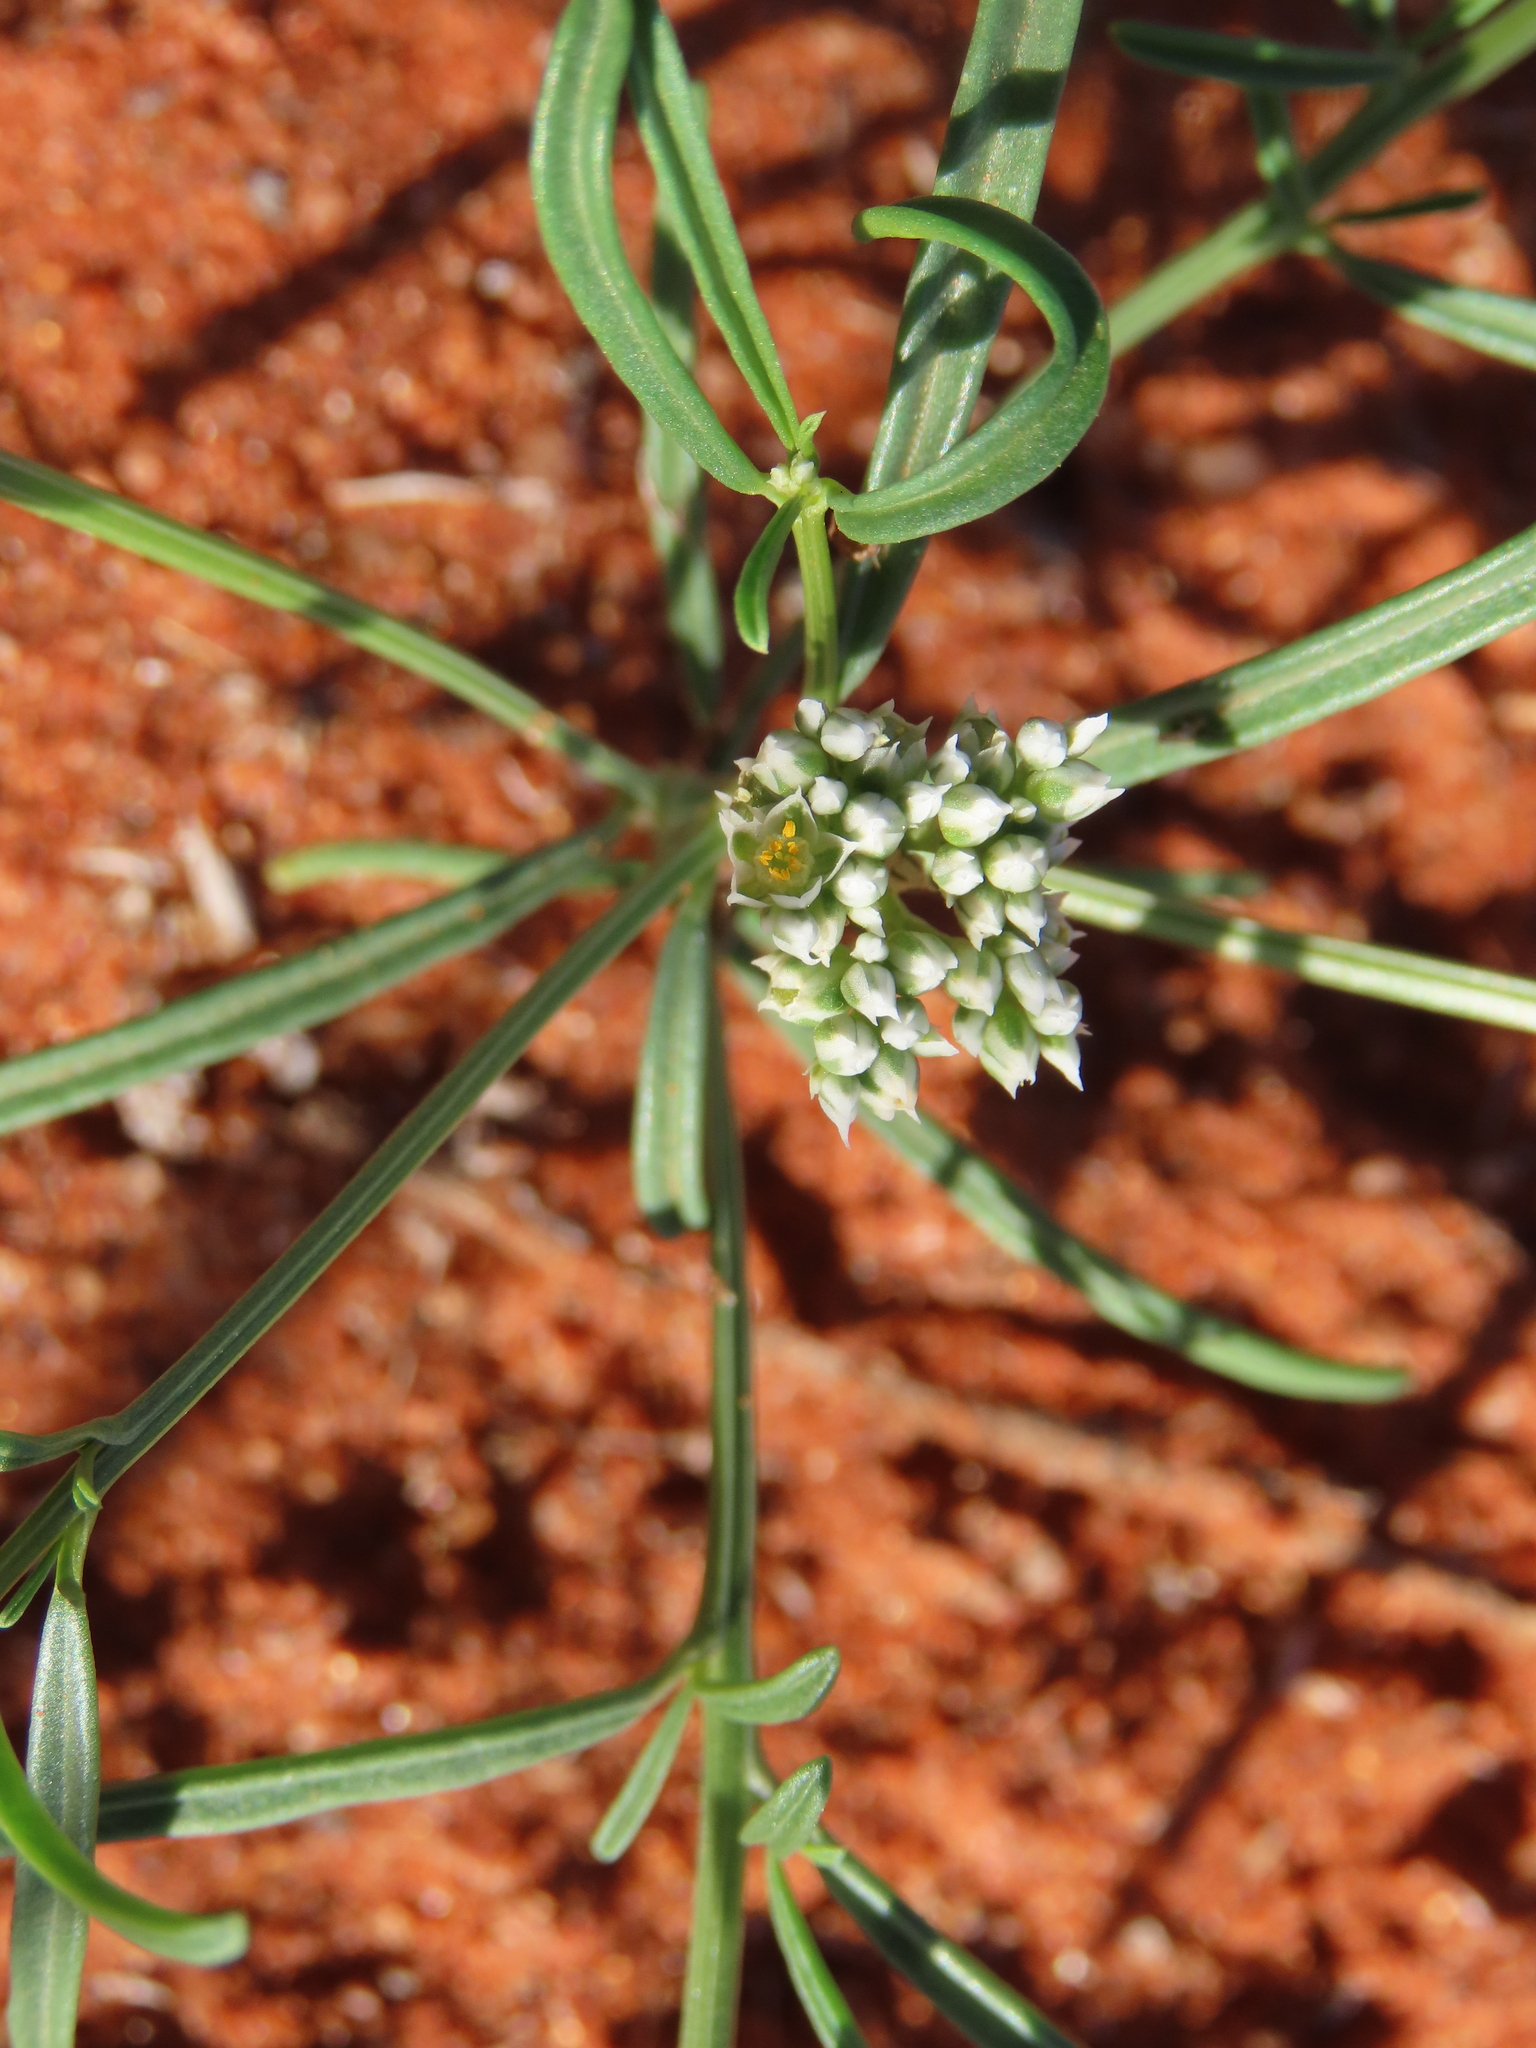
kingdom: Plantae
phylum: Tracheophyta
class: Magnoliopsida
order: Caryophyllales
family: Limeaceae
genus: Limeum
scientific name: Limeum argute-carinatum
